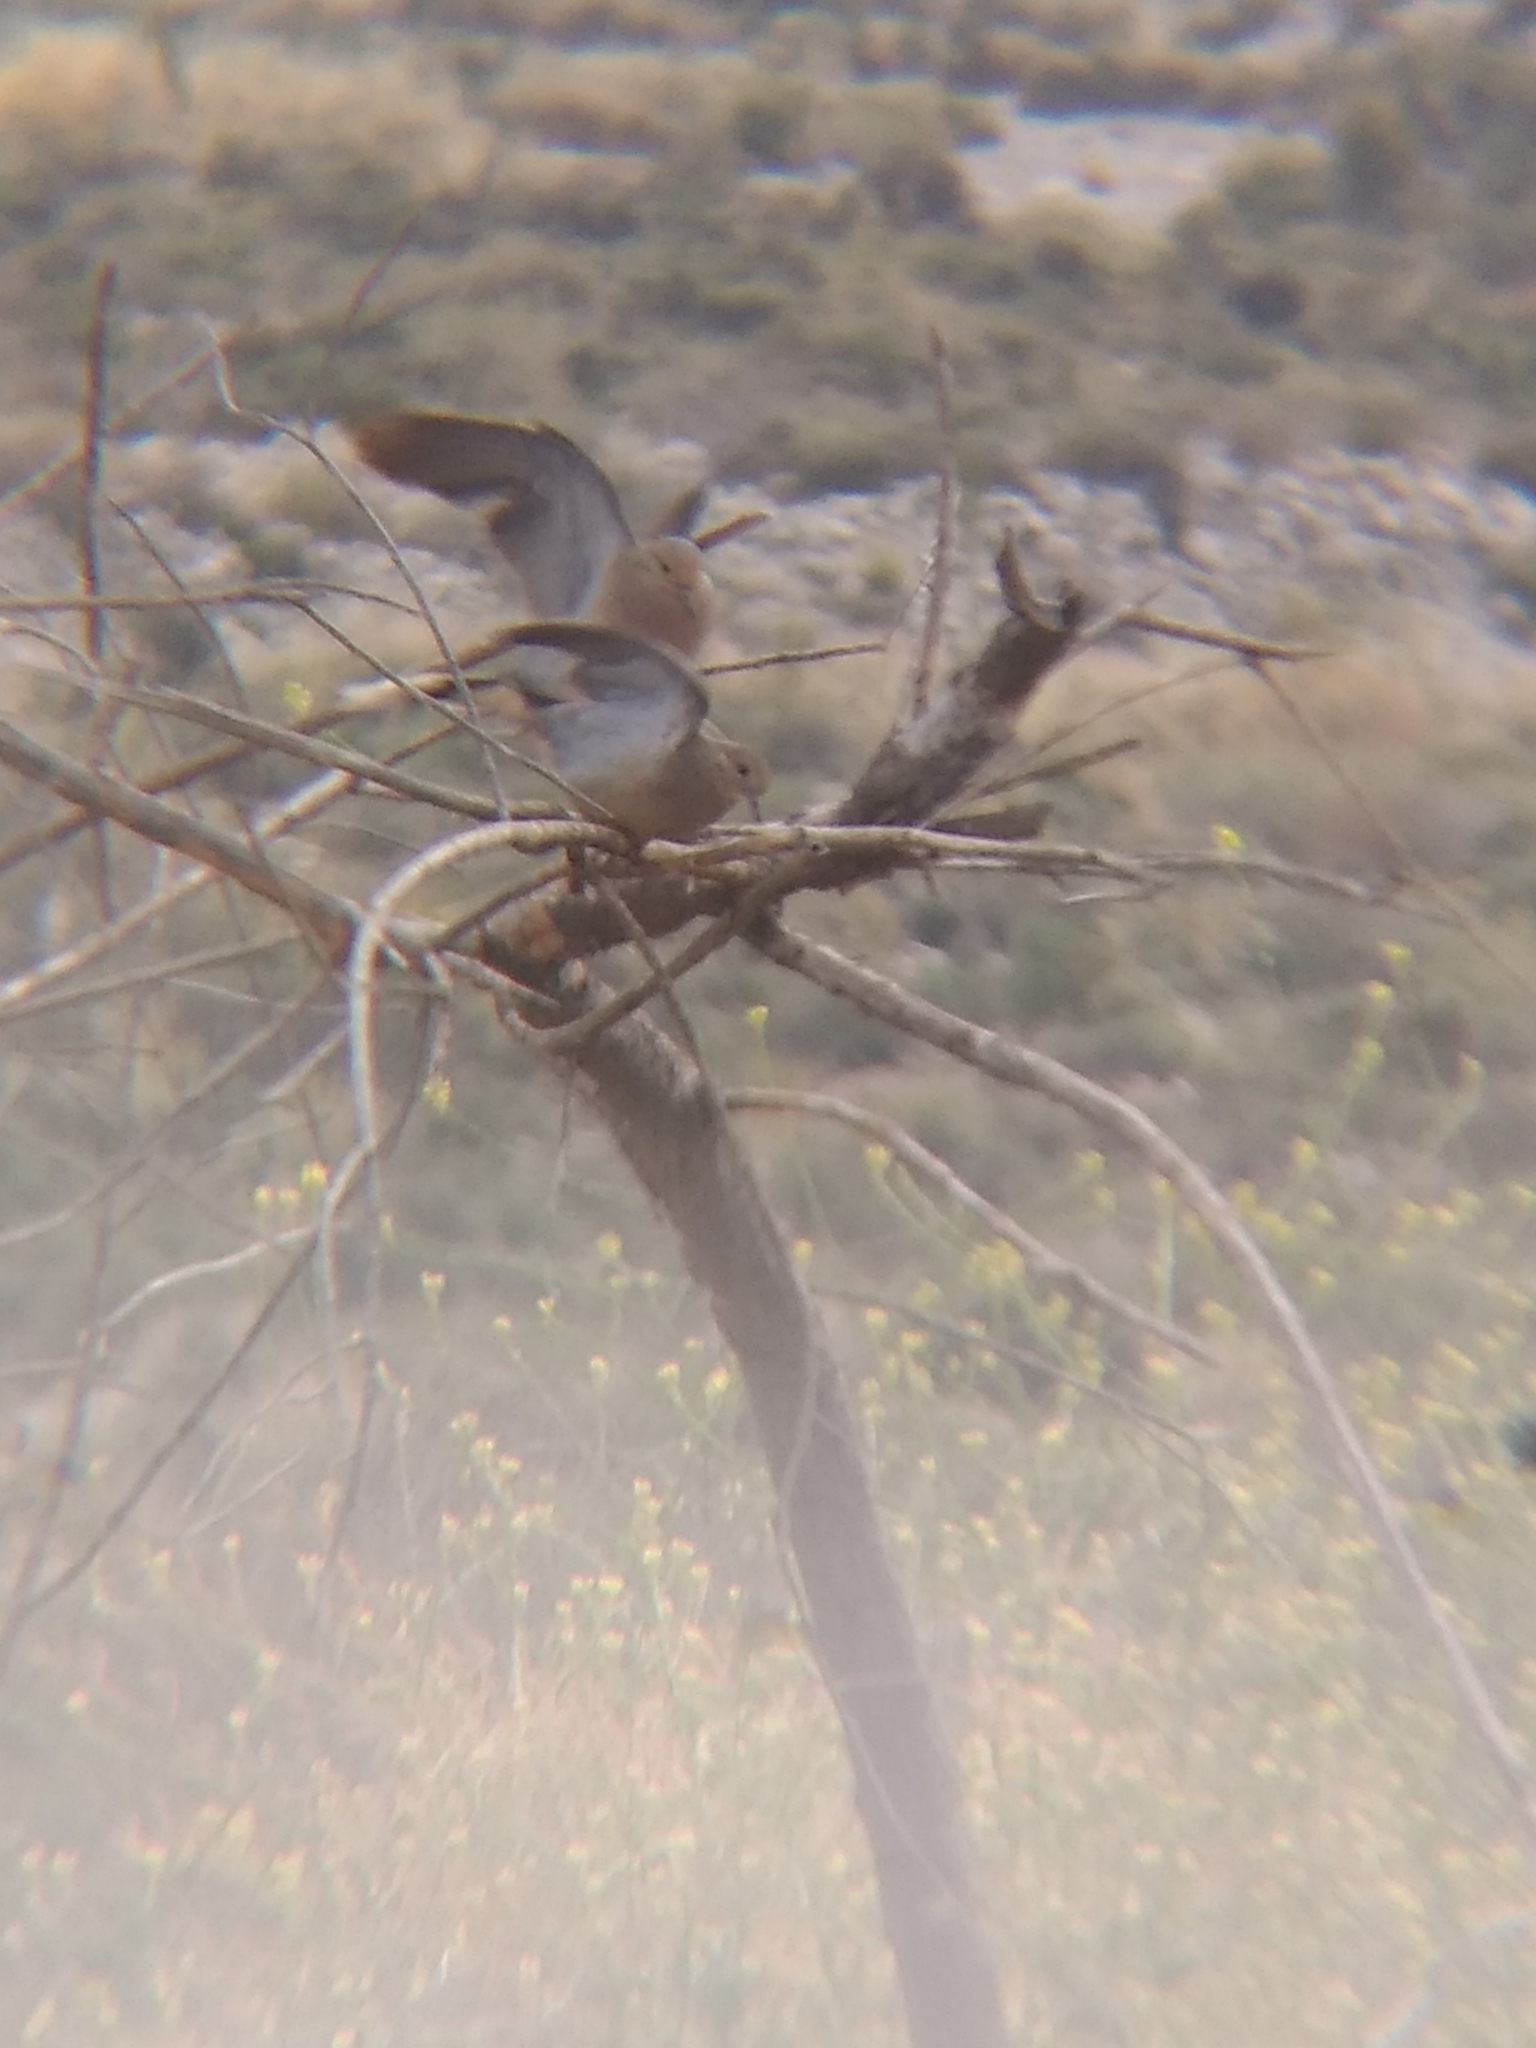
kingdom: Animalia
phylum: Chordata
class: Aves
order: Columbiformes
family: Columbidae
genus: Zenaida
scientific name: Zenaida macroura
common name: Mourning dove
